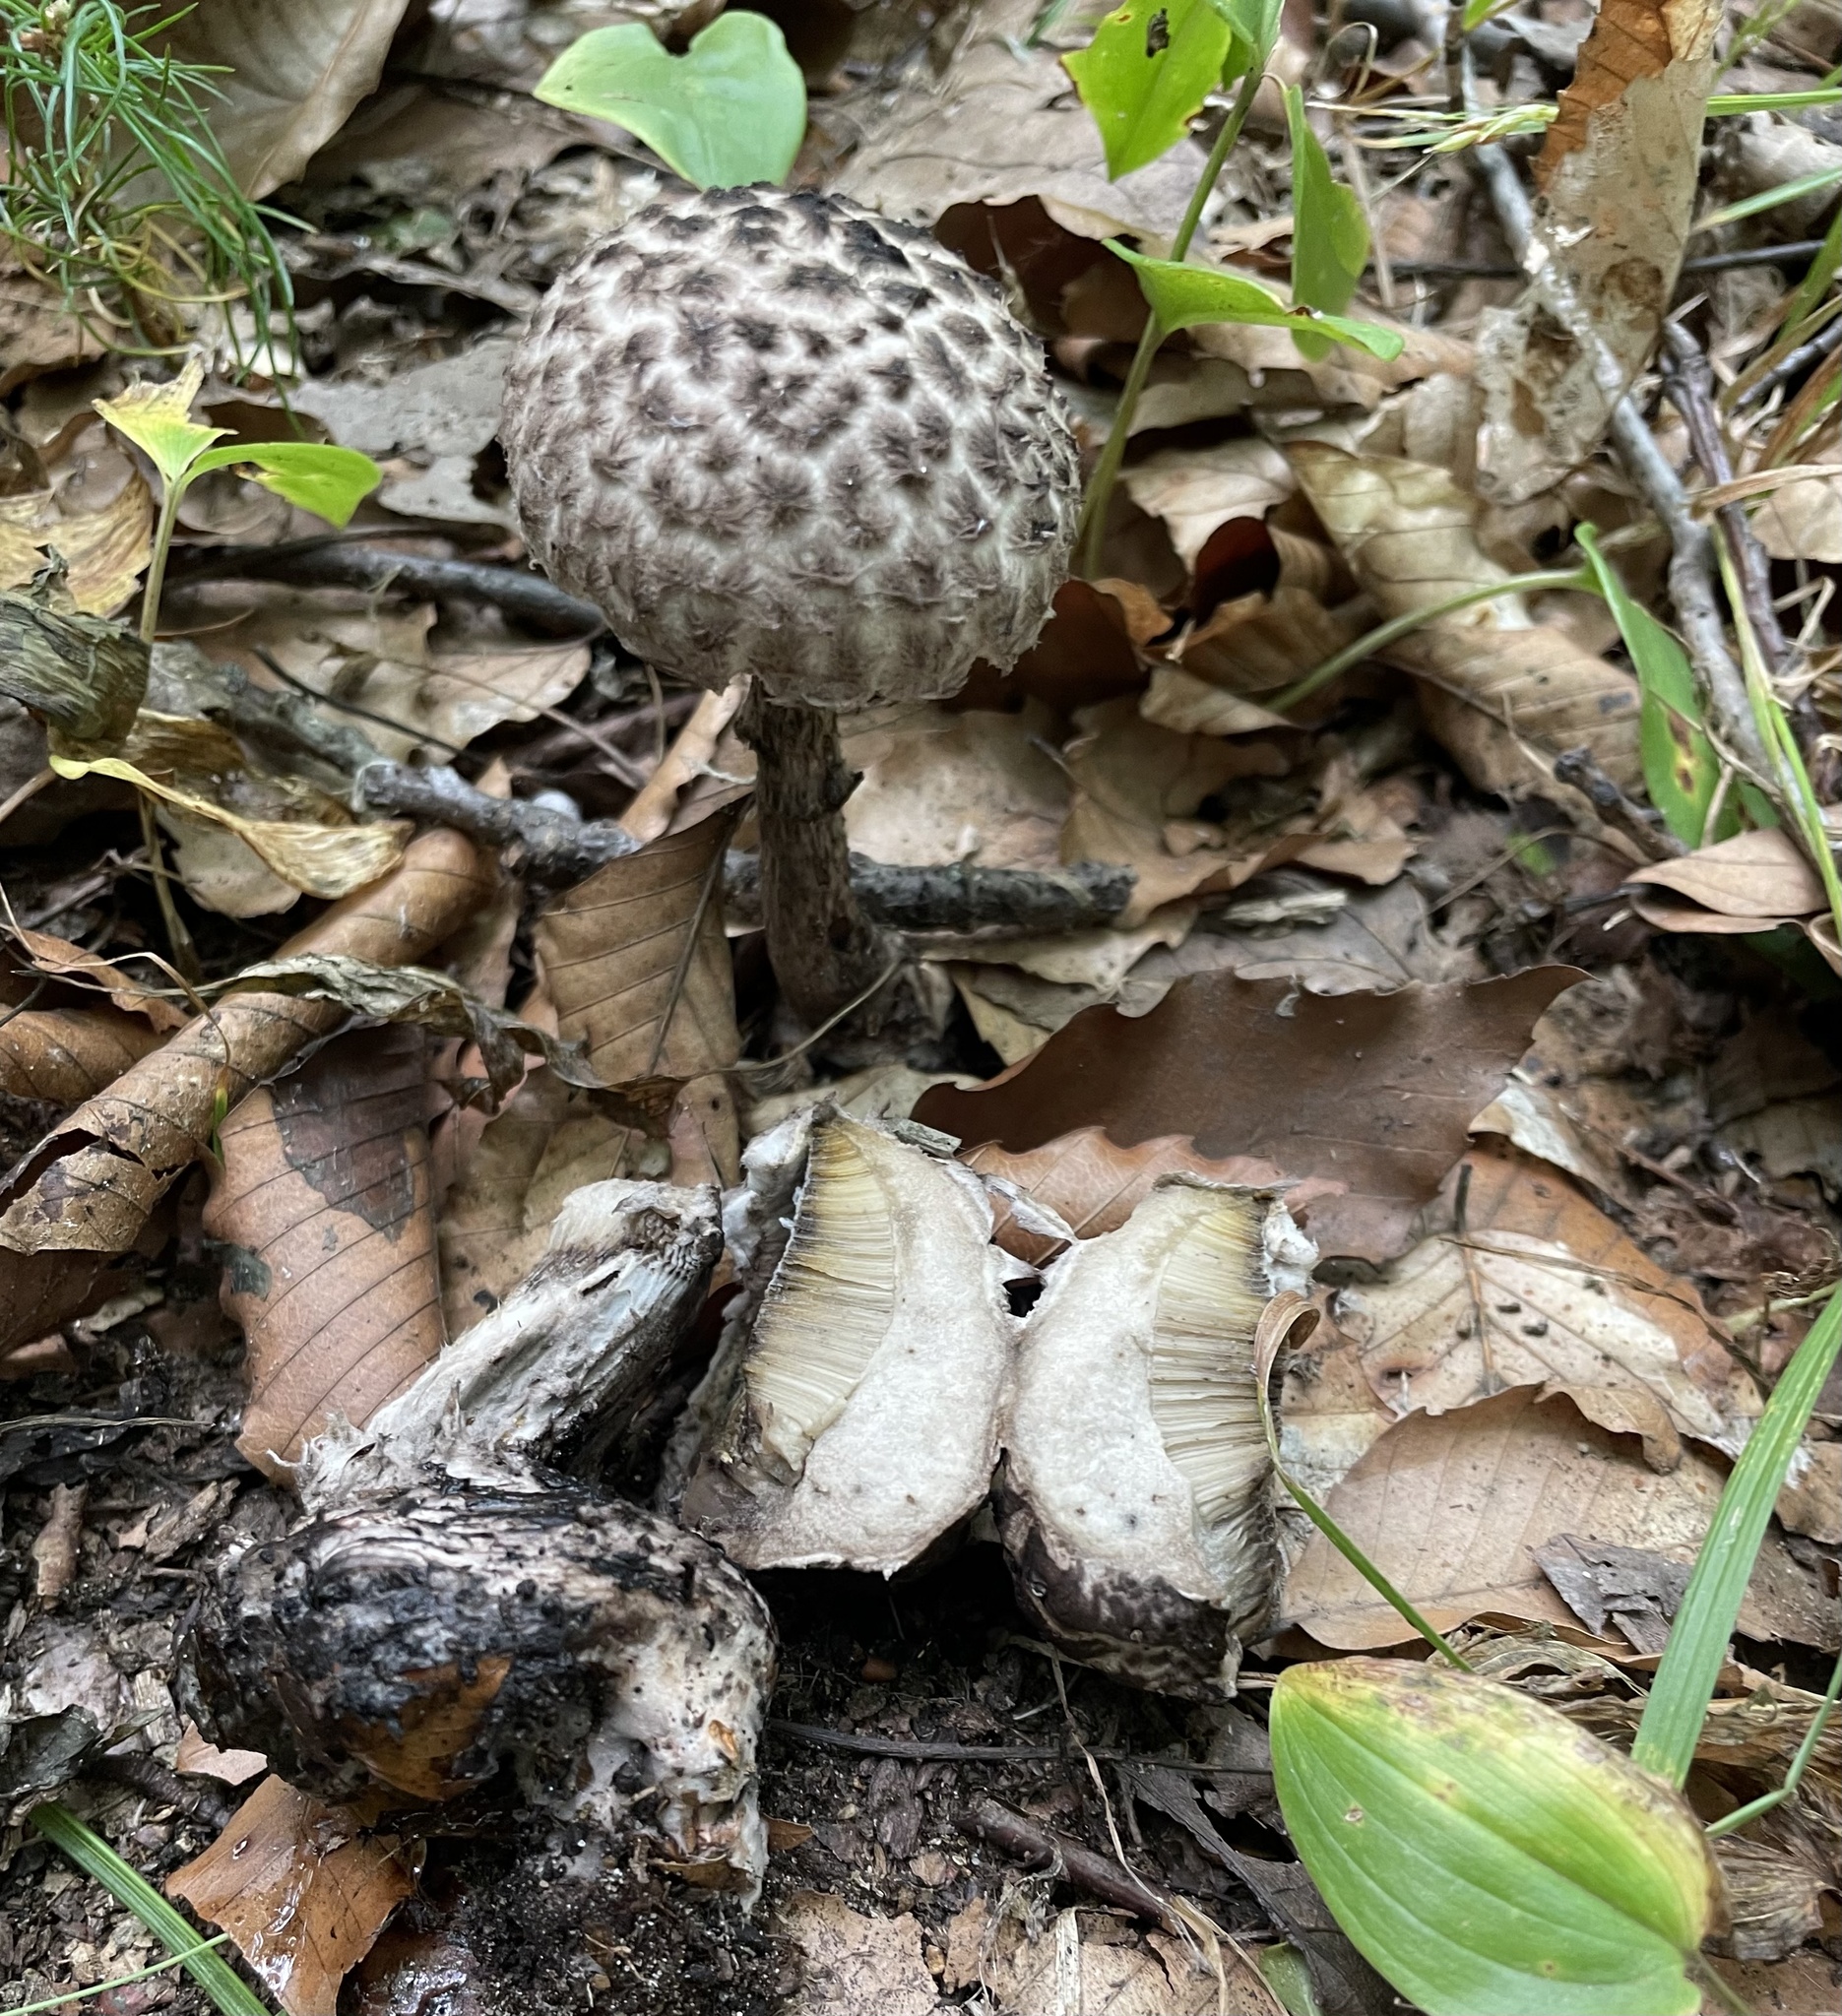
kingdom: Fungi
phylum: Basidiomycota
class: Agaricomycetes
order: Boletales
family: Boletaceae
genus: Strobilomyces
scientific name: Strobilomyces strobilaceus
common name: Old man of the woods
